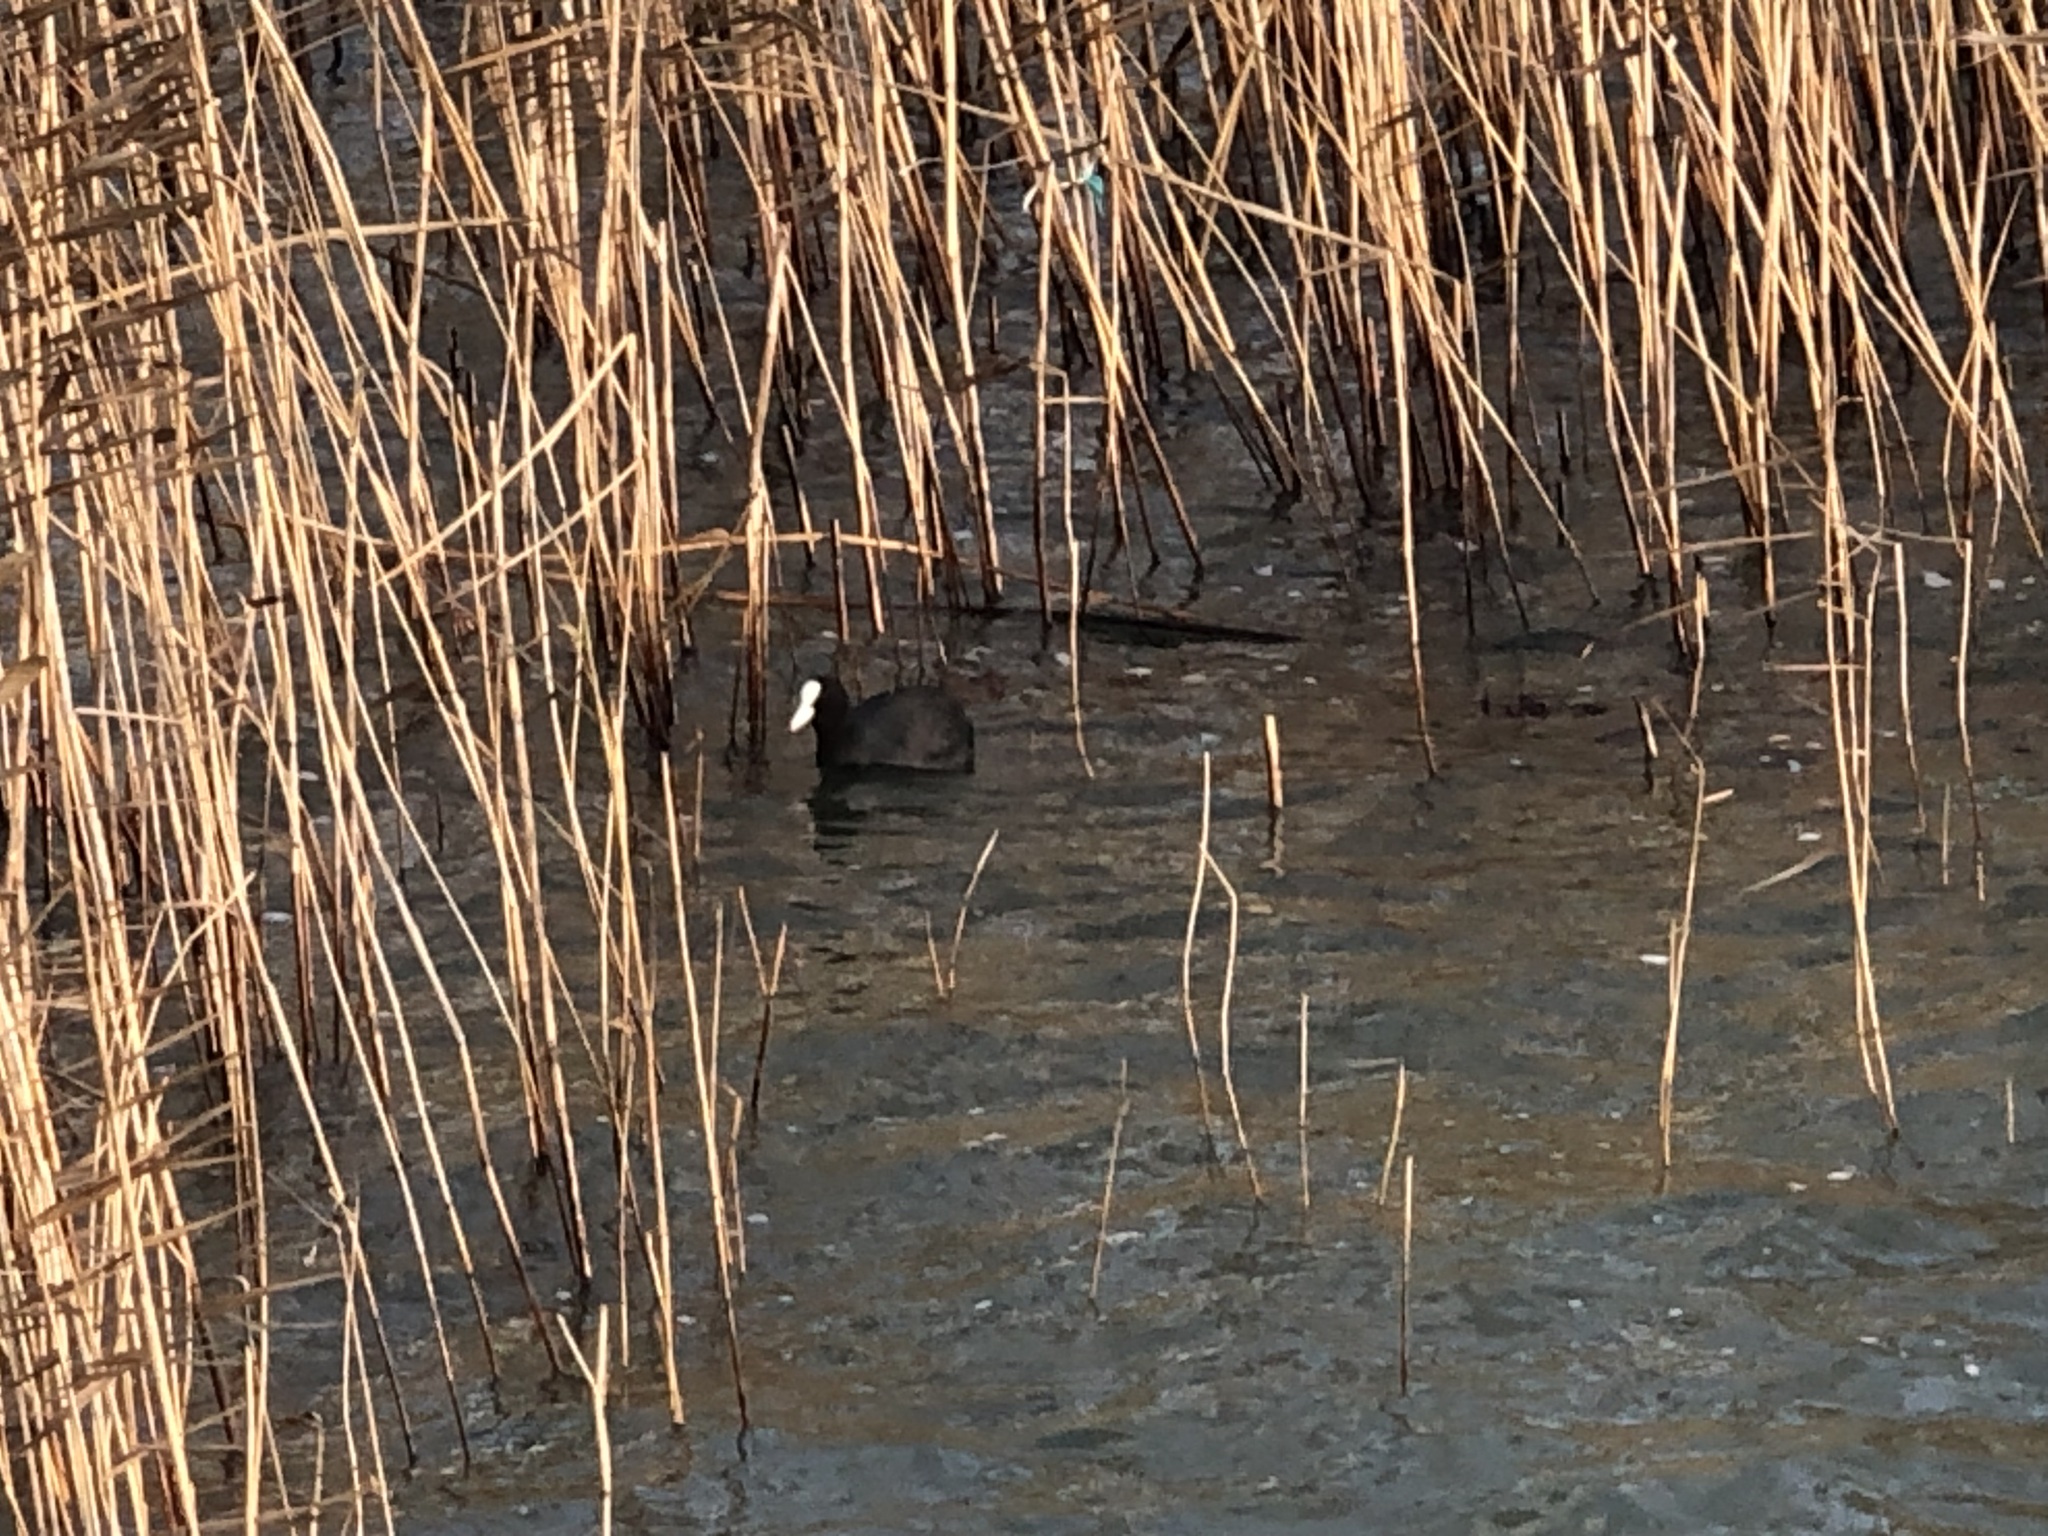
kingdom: Animalia
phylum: Chordata
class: Aves
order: Gruiformes
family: Rallidae
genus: Fulica
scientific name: Fulica atra
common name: Eurasian coot
